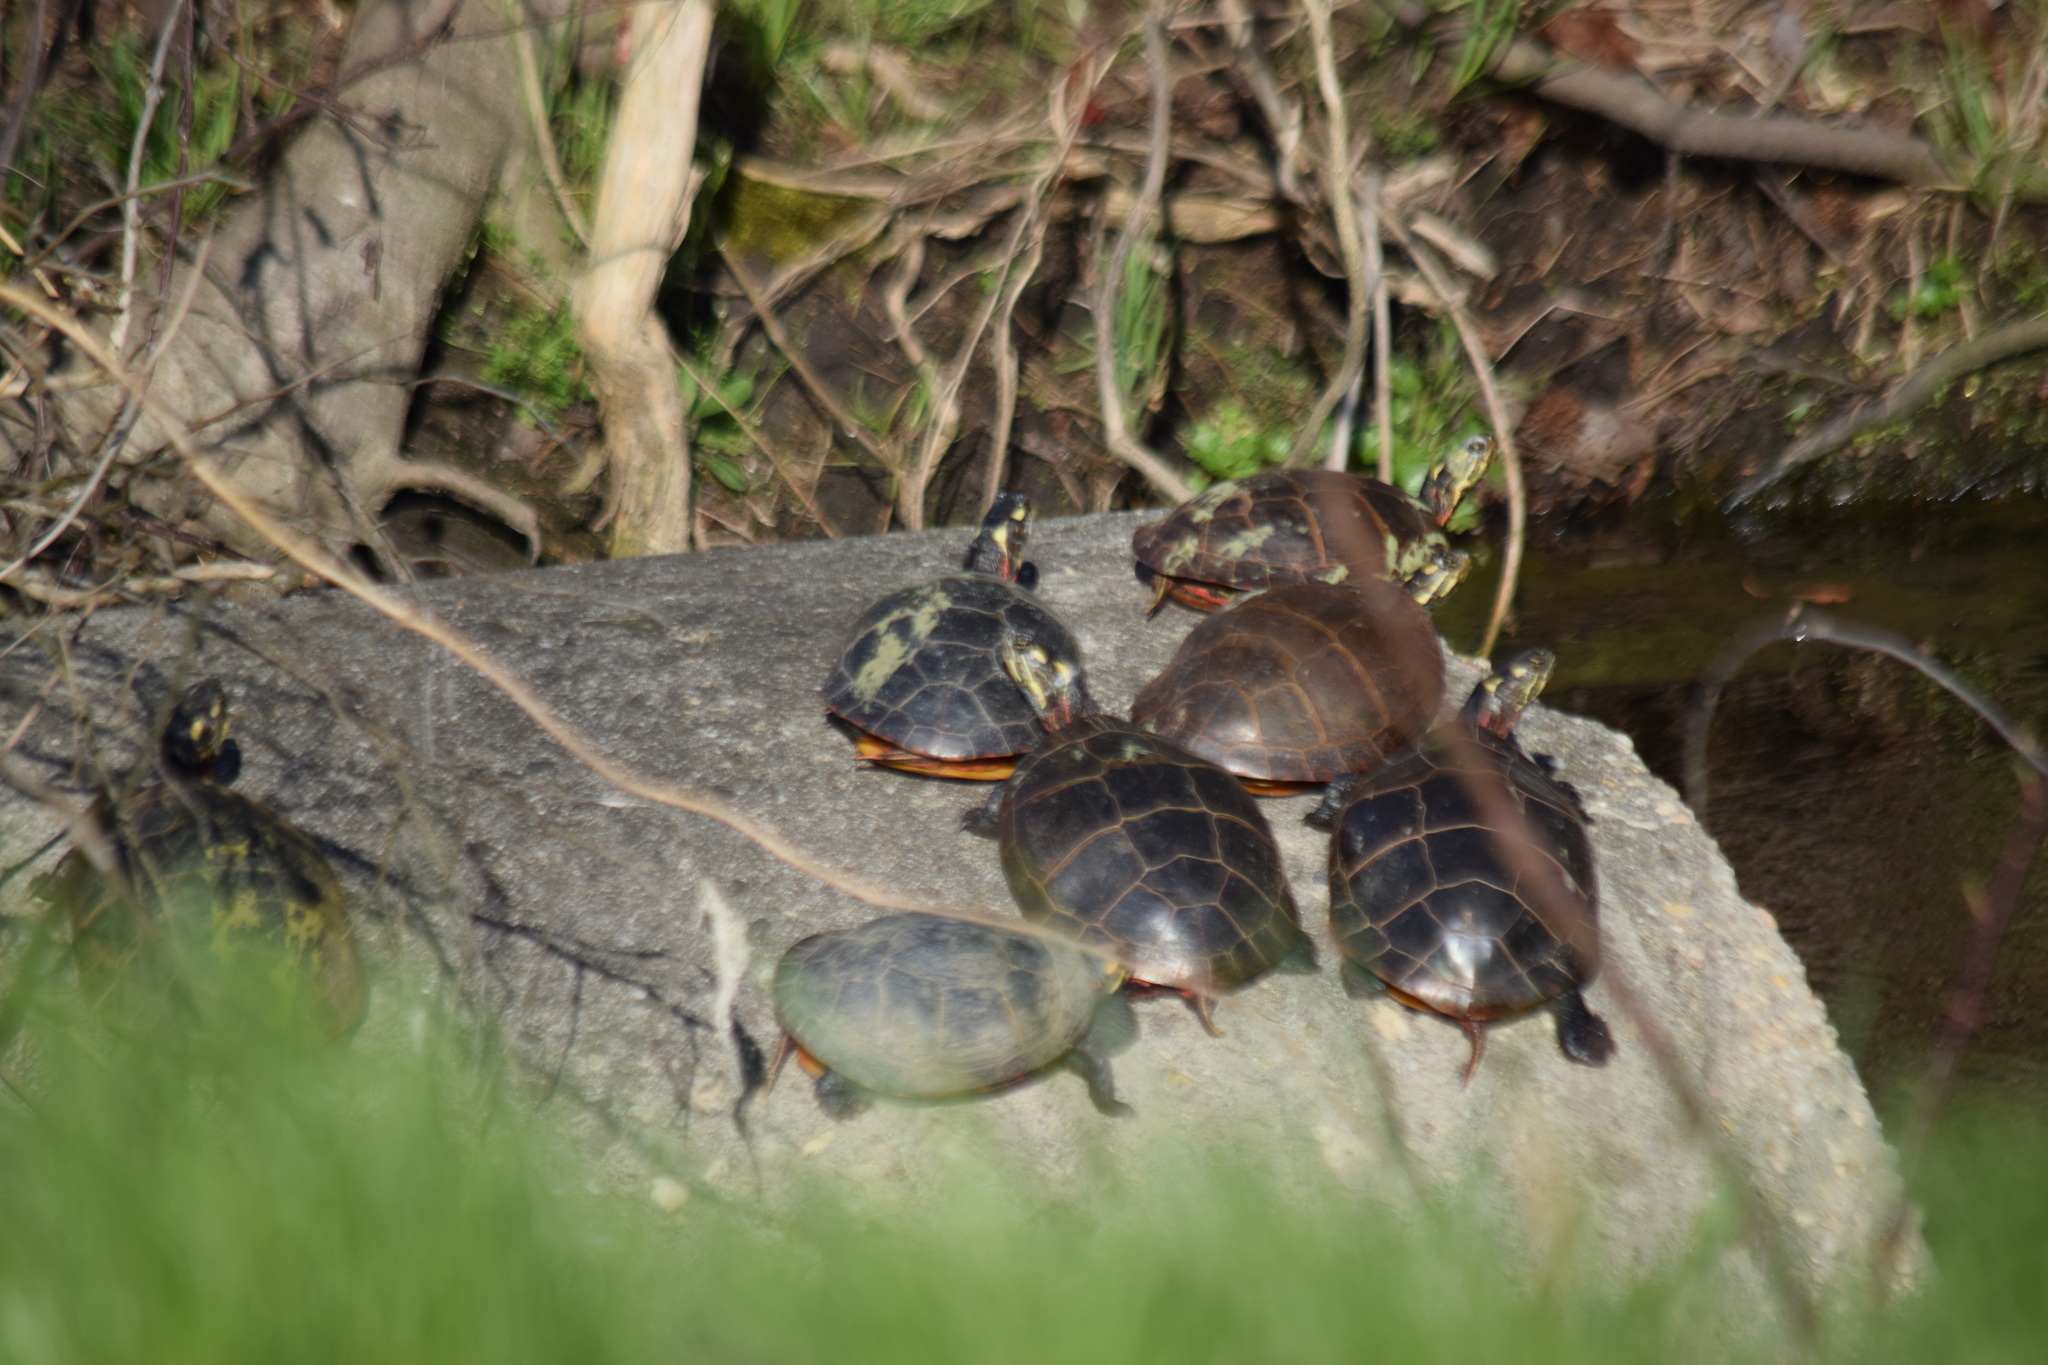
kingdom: Animalia
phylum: Chordata
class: Testudines
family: Emydidae
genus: Chrysemys
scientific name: Chrysemys picta
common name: Painted turtle
